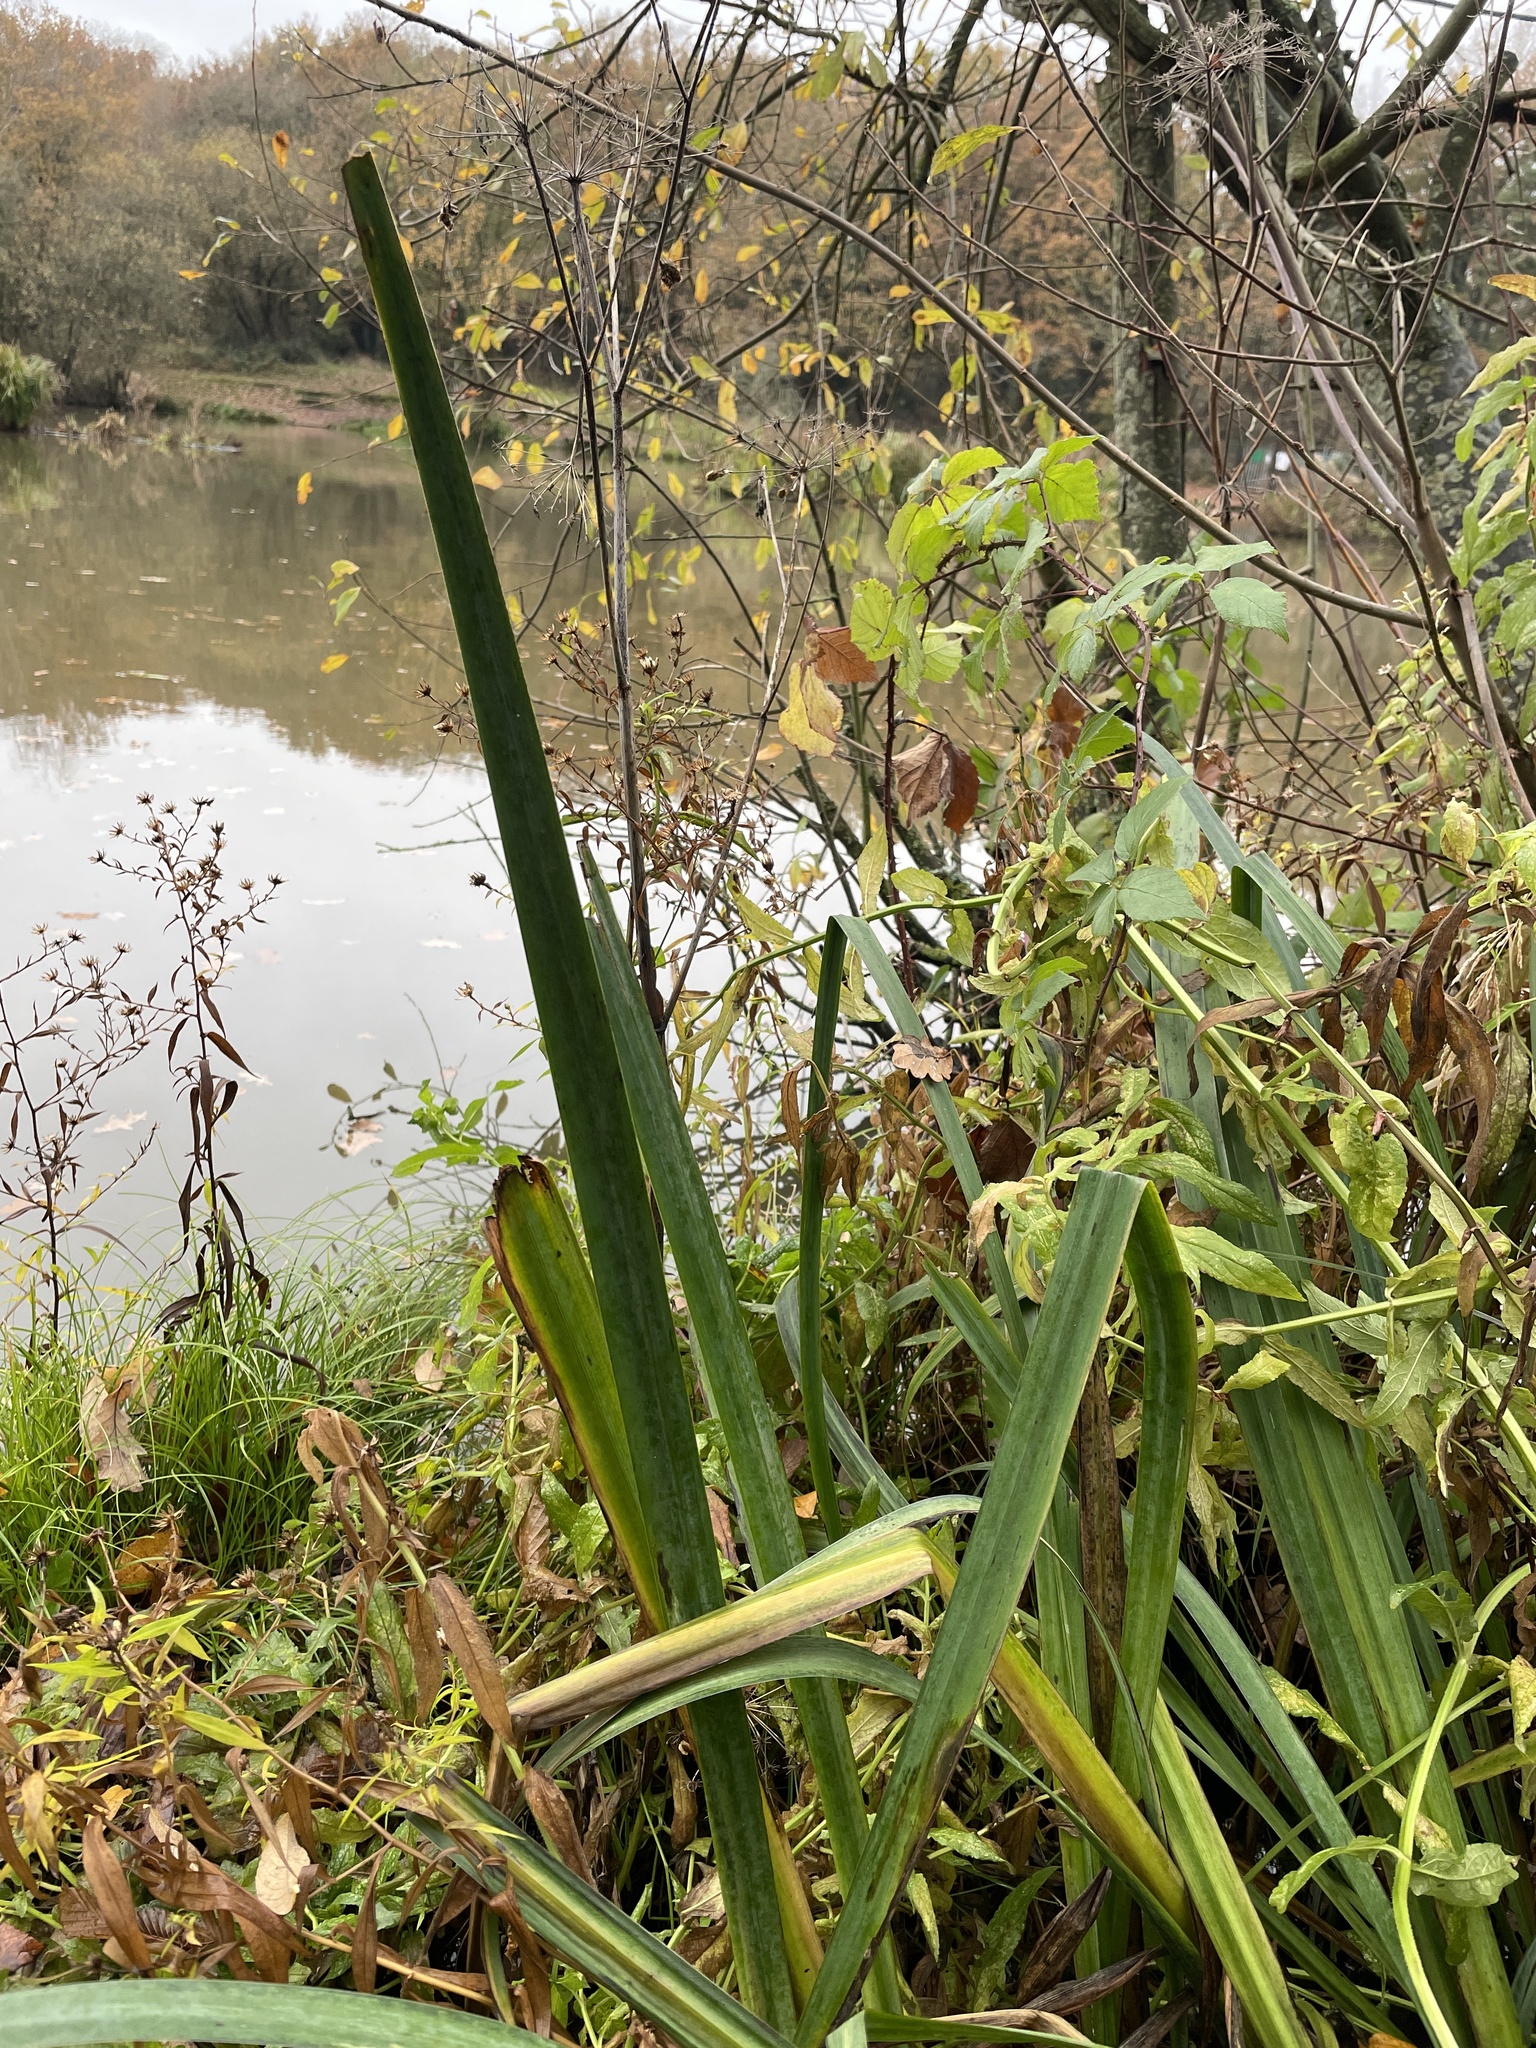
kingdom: Plantae
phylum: Tracheophyta
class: Liliopsida
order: Asparagales
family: Iridaceae
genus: Iris
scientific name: Iris
